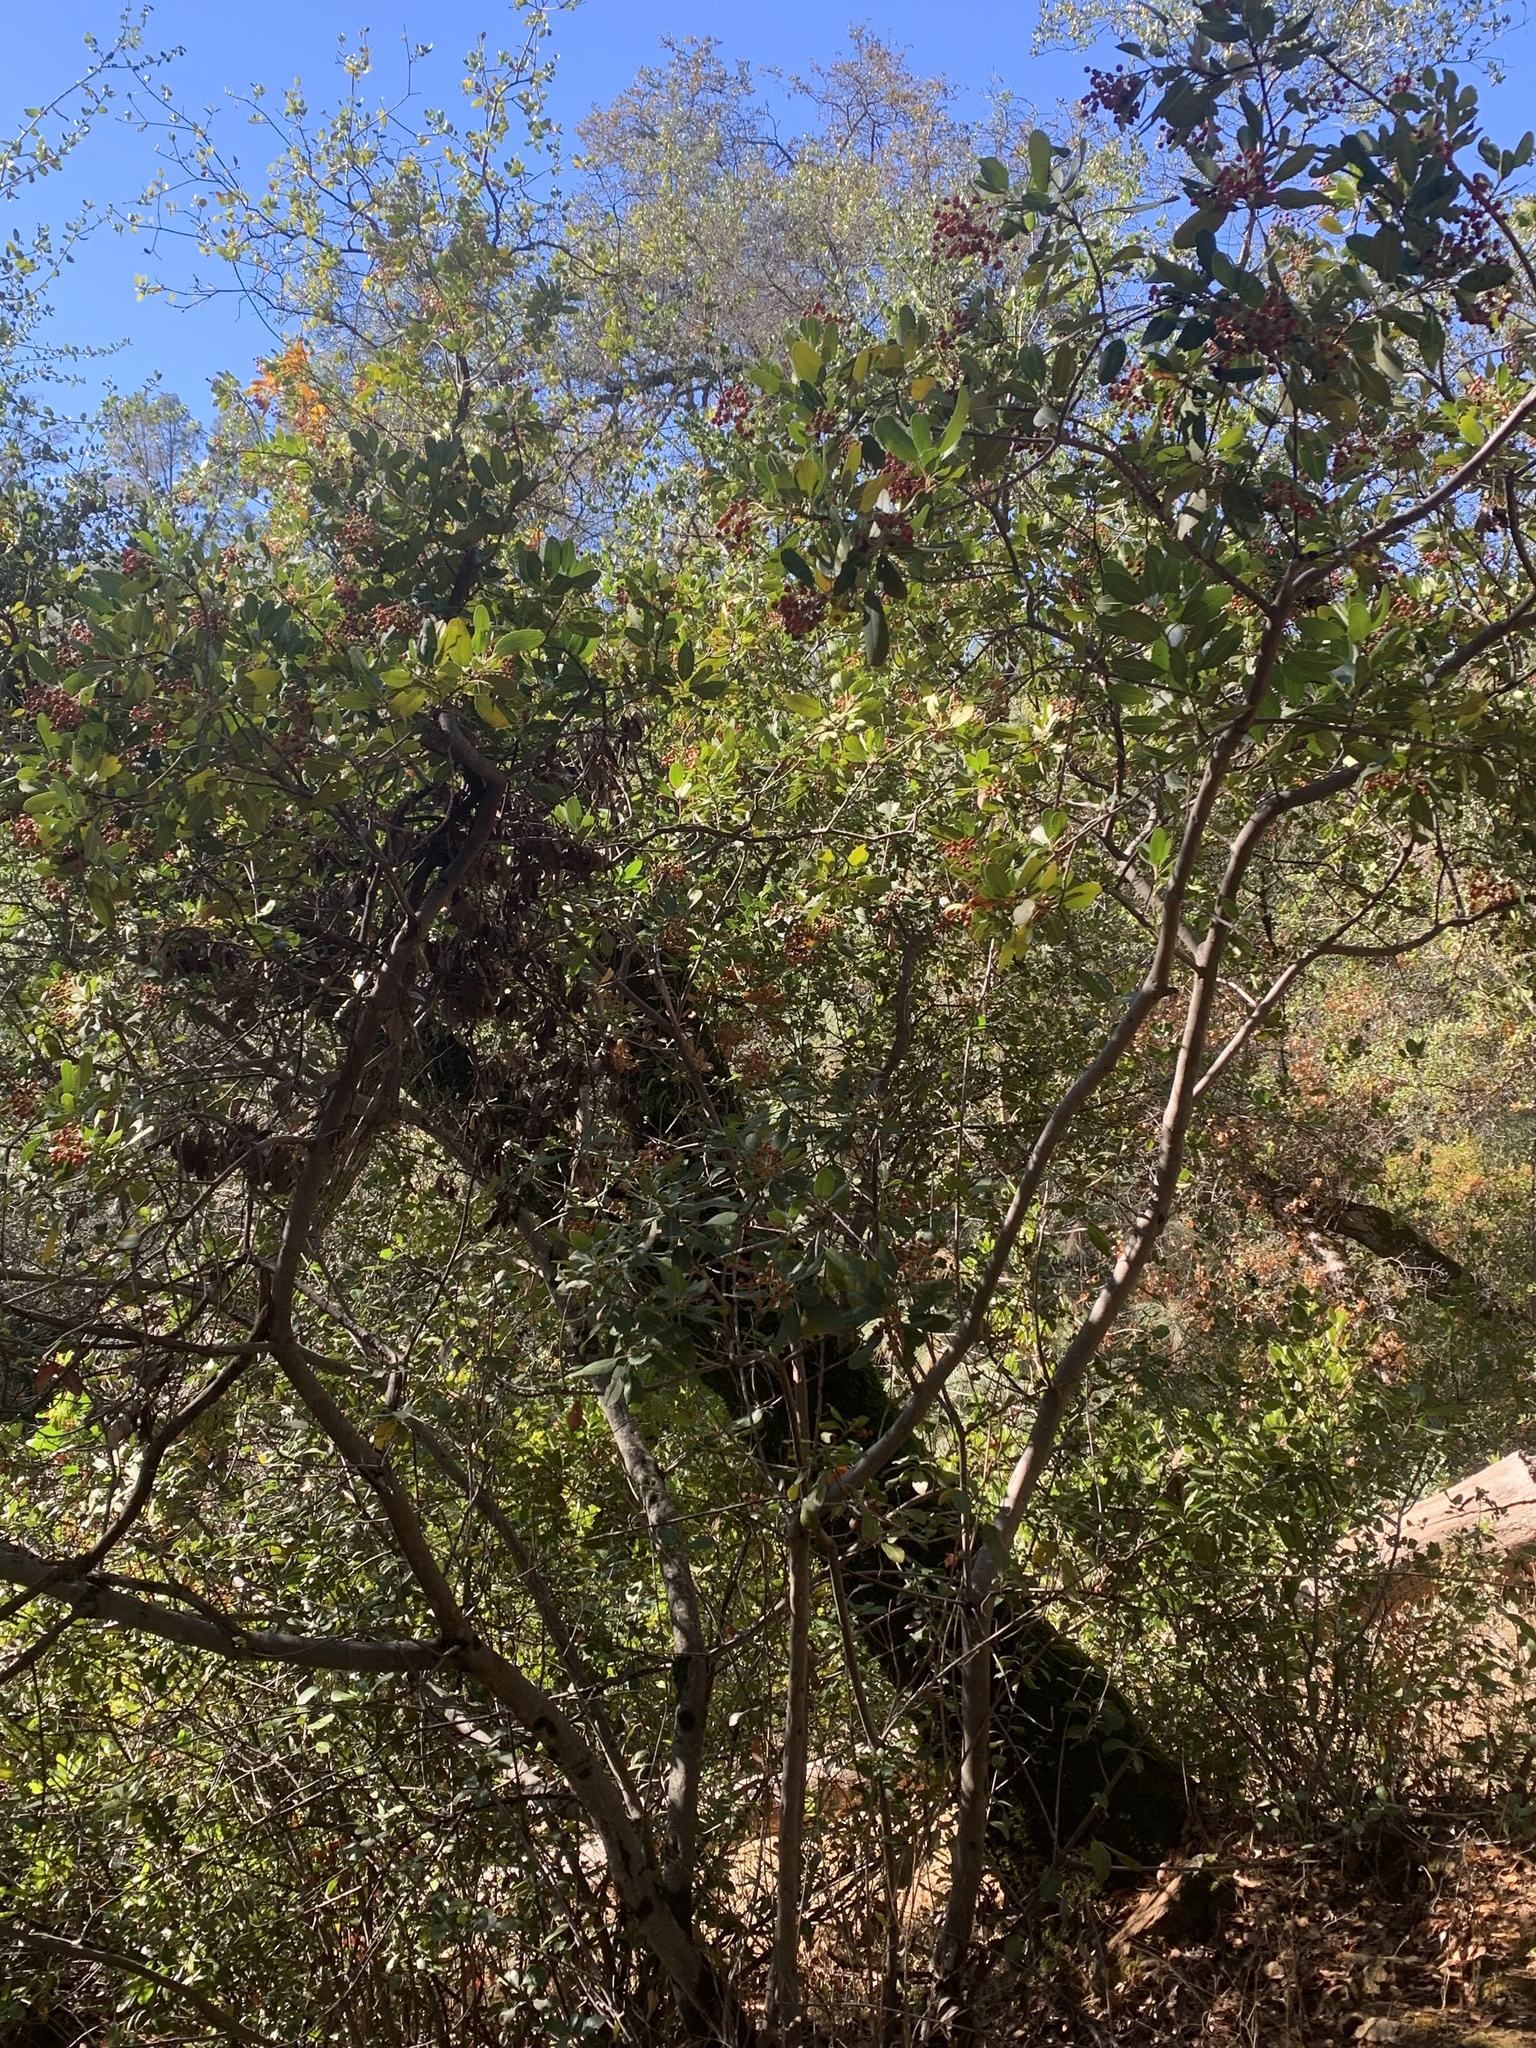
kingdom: Plantae
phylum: Tracheophyta
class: Magnoliopsida
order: Rosales
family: Rosaceae
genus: Heteromeles
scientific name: Heteromeles arbutifolia
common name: California-holly
